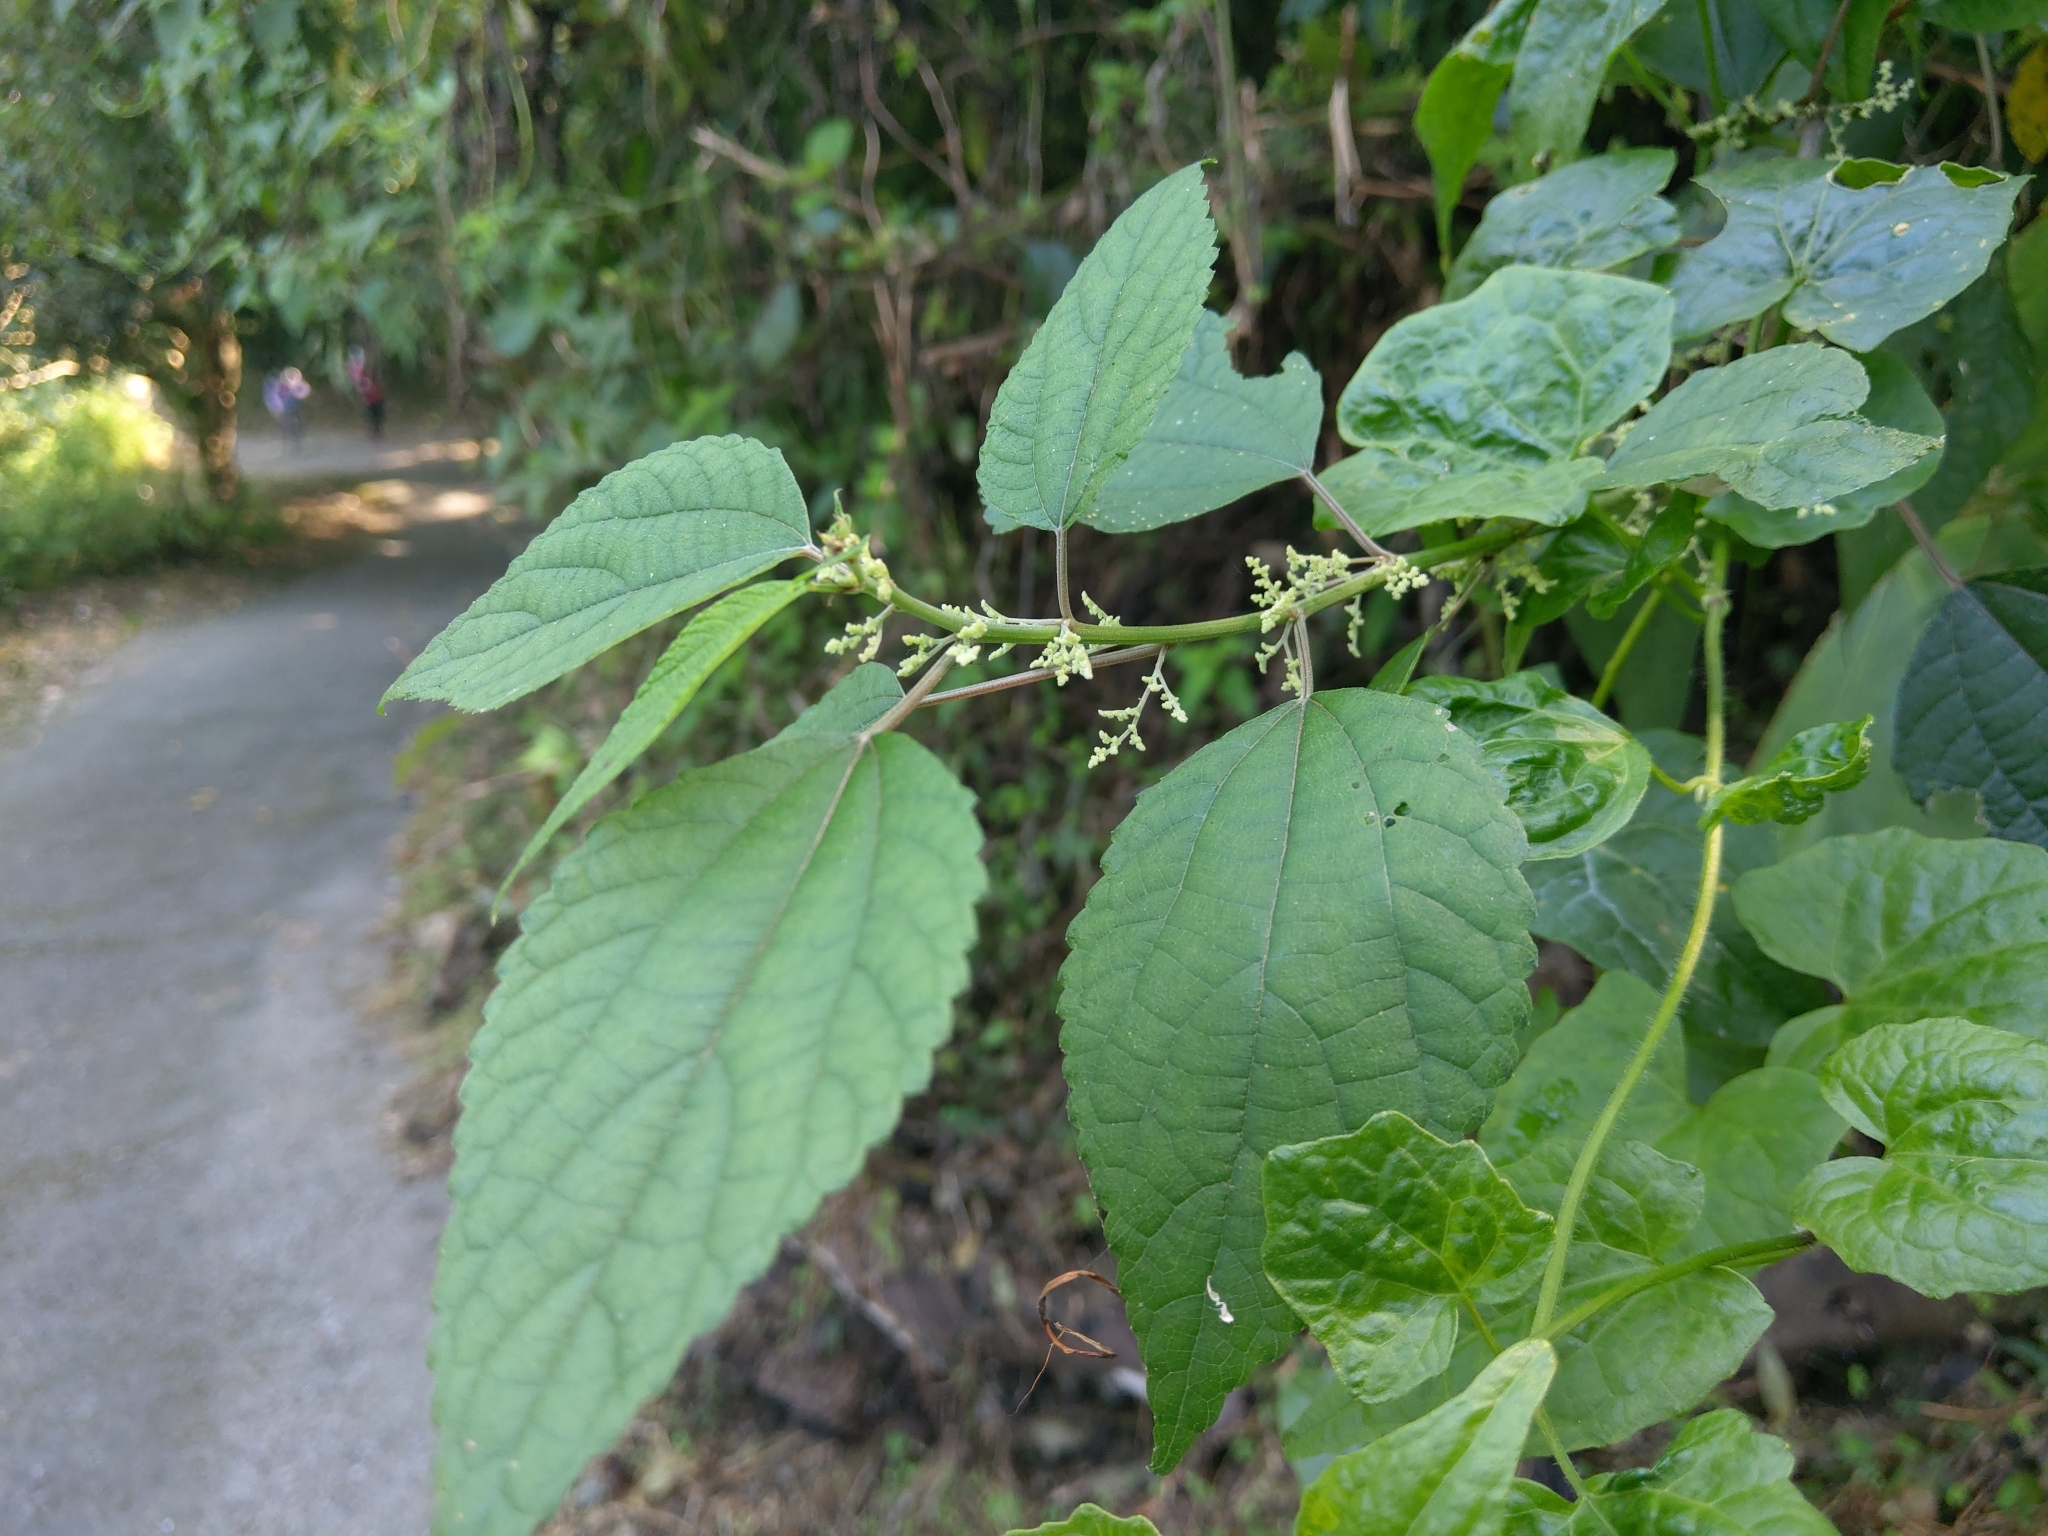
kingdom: Plantae
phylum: Tracheophyta
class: Magnoliopsida
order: Rosales
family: Urticaceae
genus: Boehmeria
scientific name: Boehmeria nivea
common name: Ramie chinese grass
